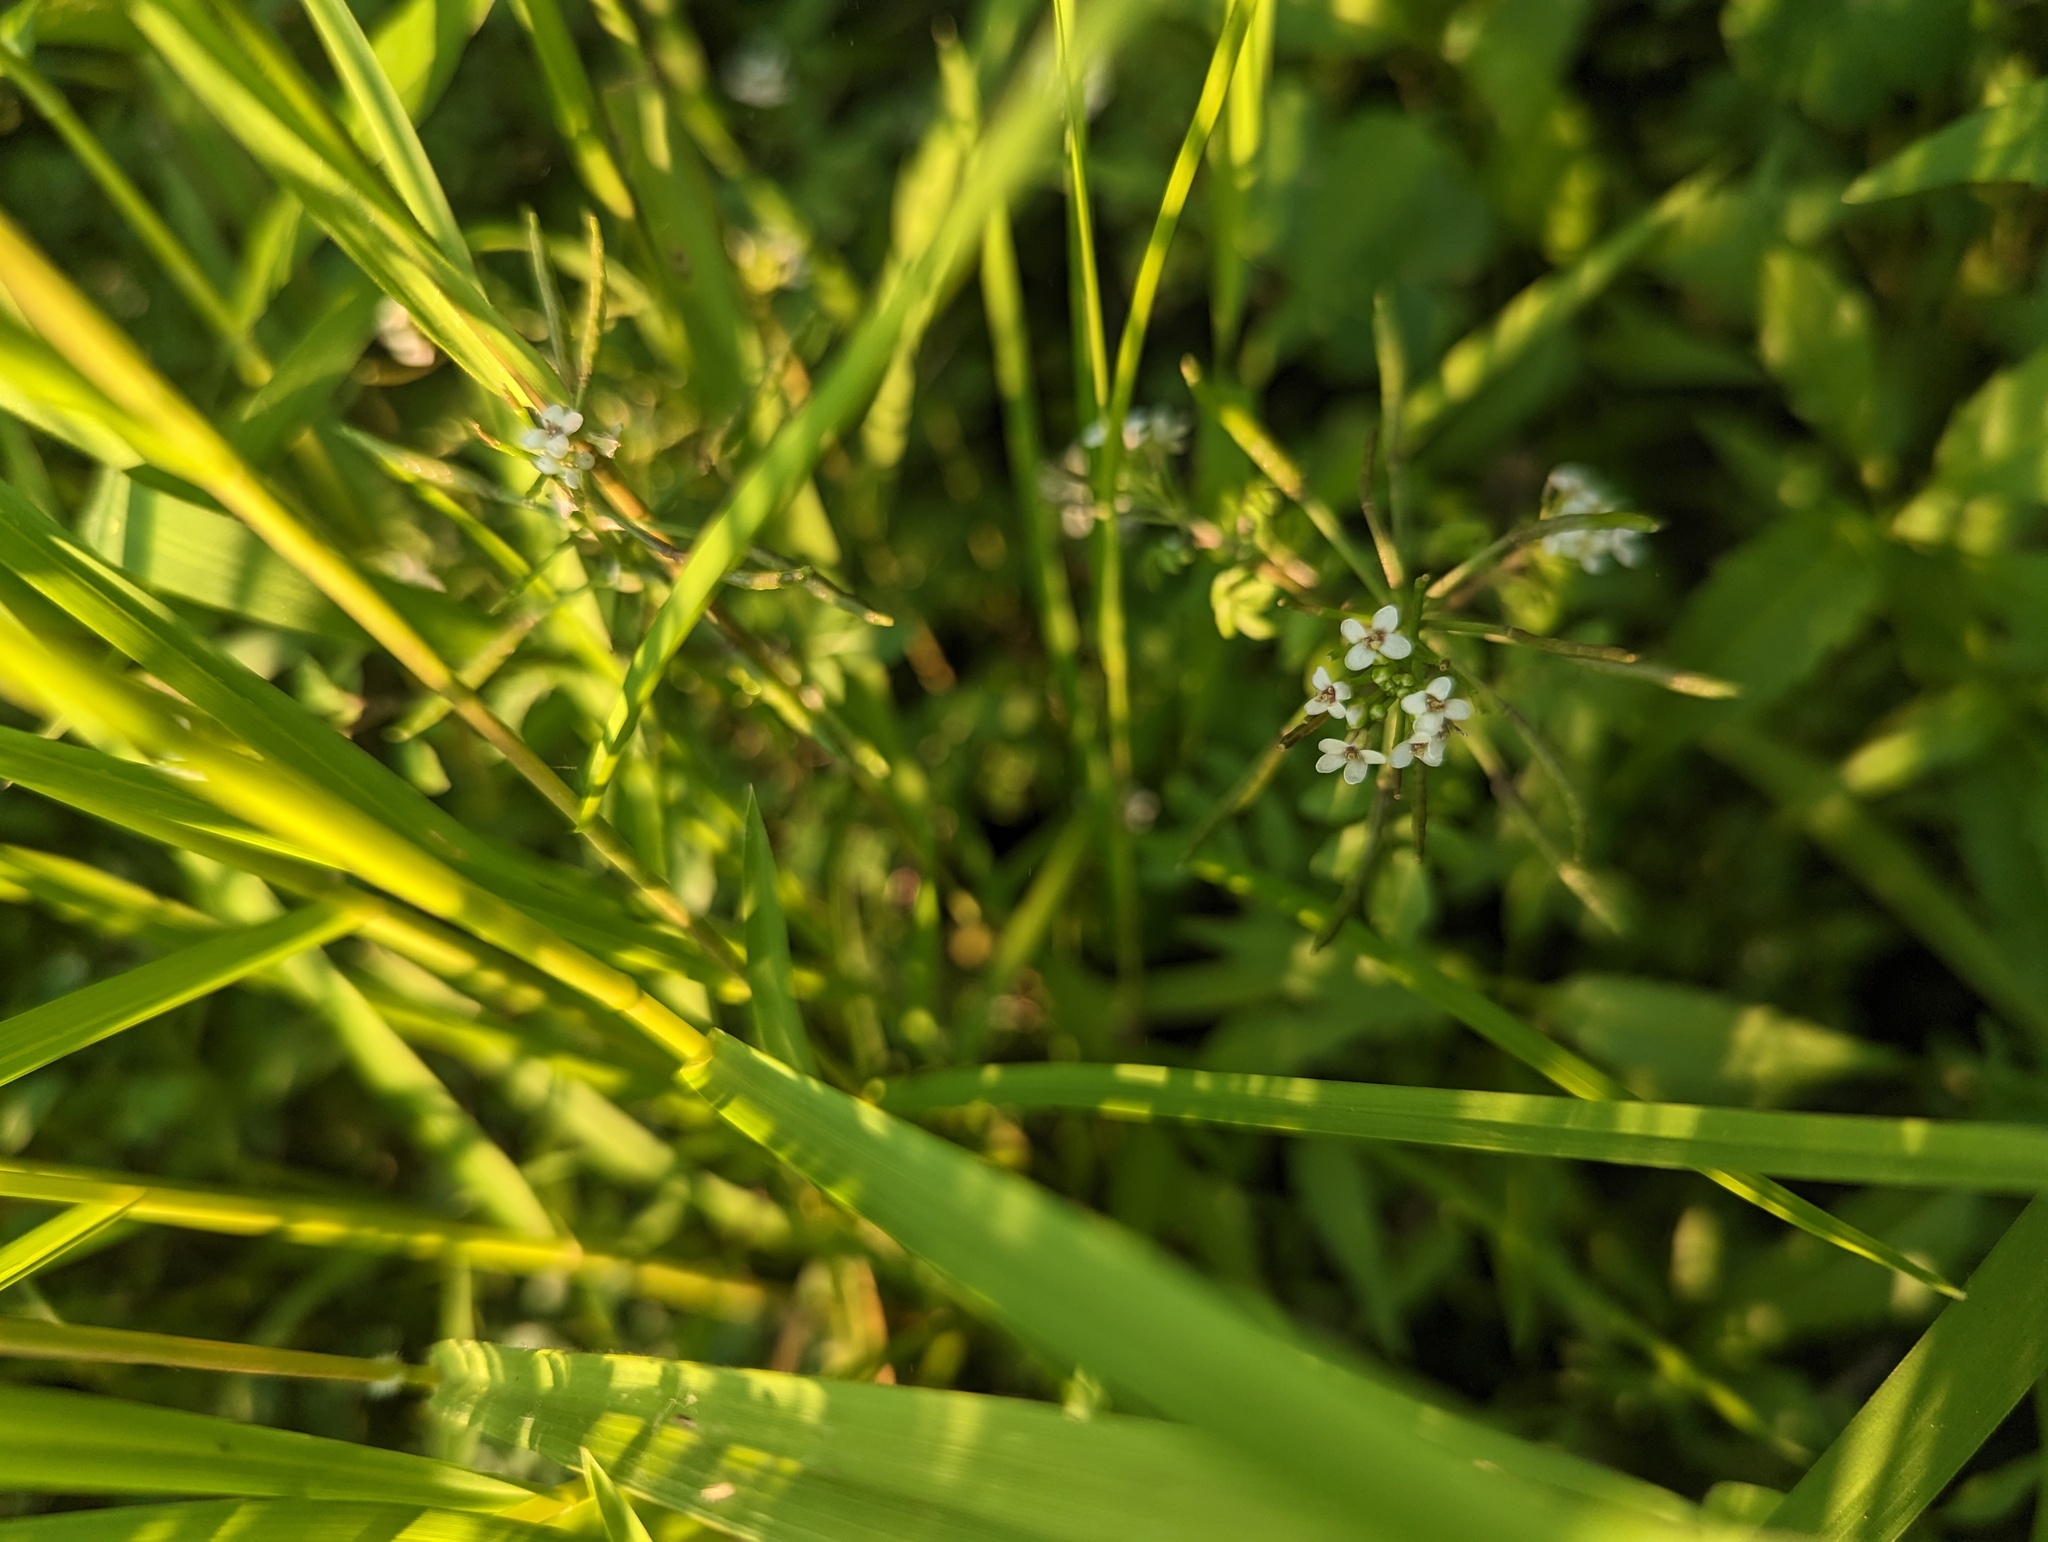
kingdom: Plantae
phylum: Tracheophyta
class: Magnoliopsida
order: Brassicales
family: Brassicaceae
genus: Nasturtium
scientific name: Nasturtium officinale
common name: Watercress
